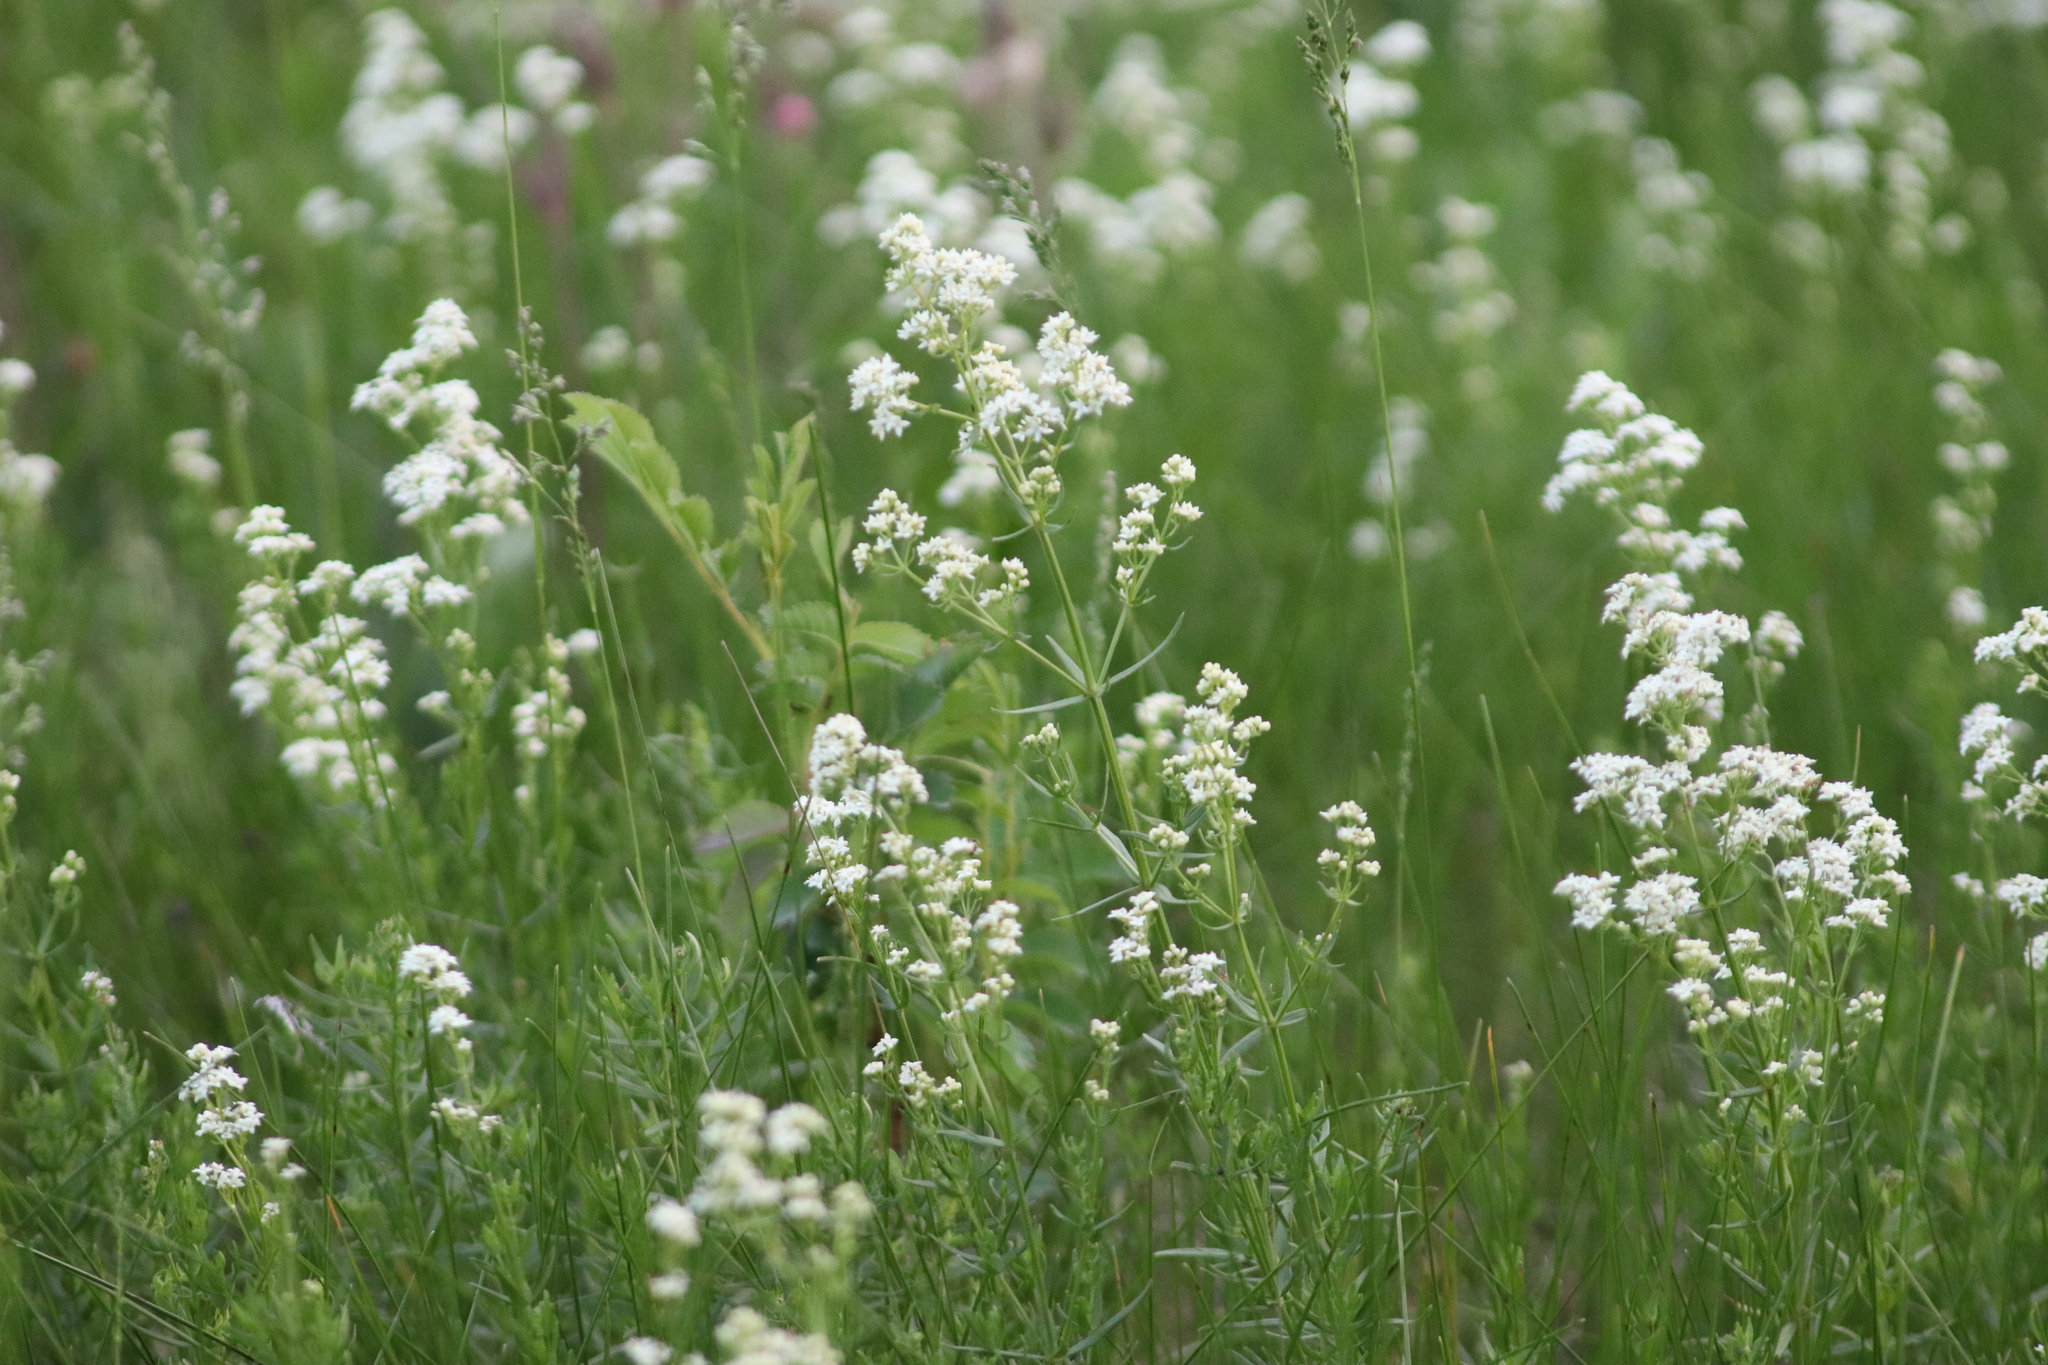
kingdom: Plantae
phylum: Tracheophyta
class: Magnoliopsida
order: Gentianales
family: Rubiaceae
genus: Galium
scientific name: Galium boreale
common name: Northern bedstraw
